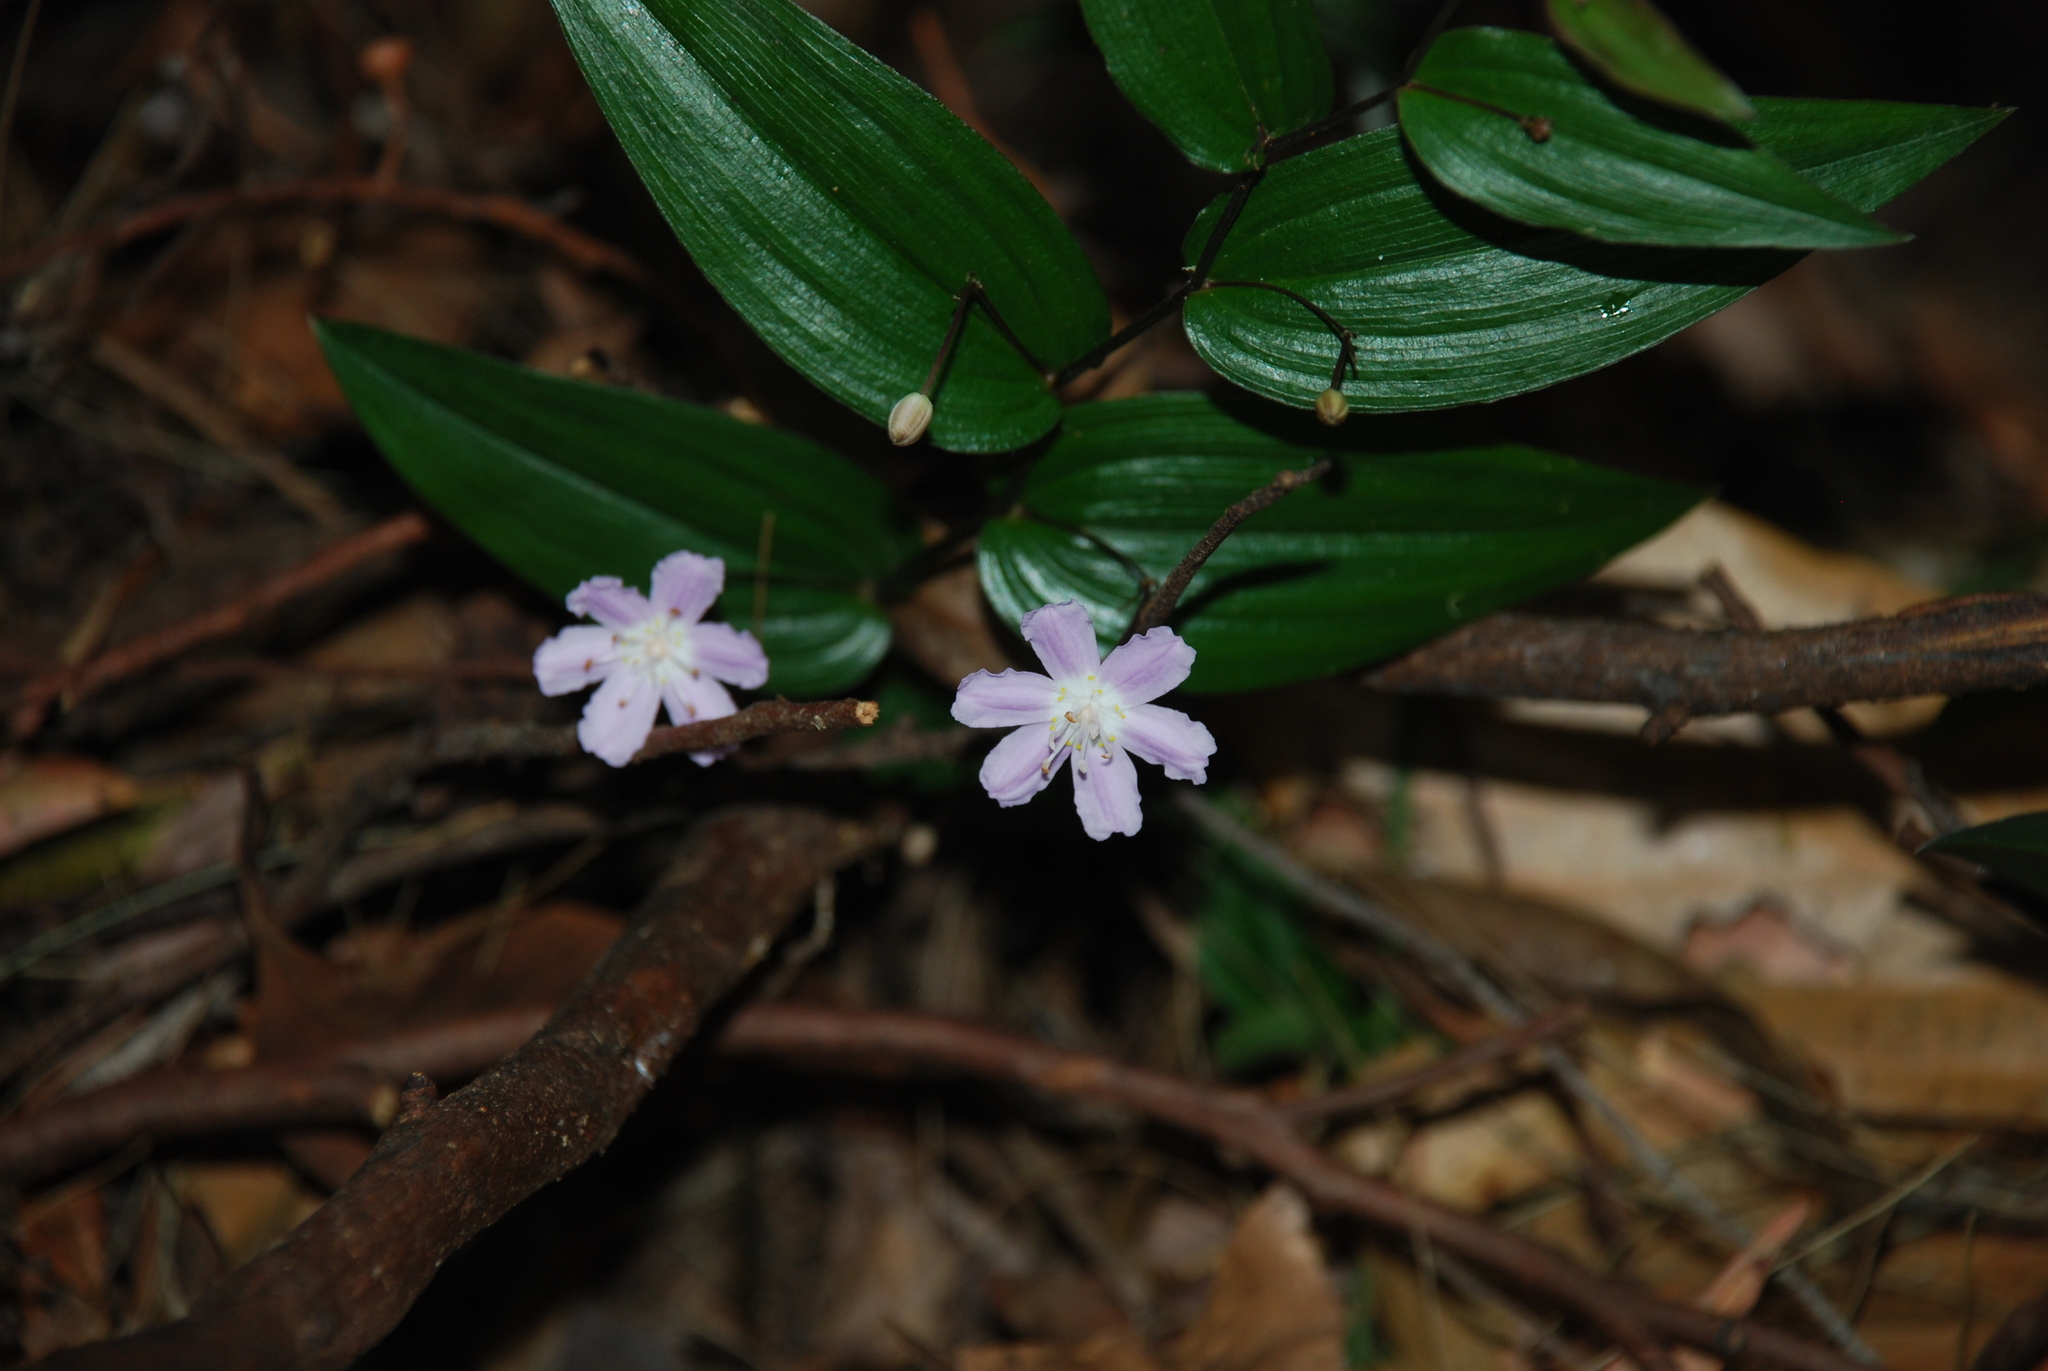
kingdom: Plantae
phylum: Tracheophyta
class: Liliopsida
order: Liliales
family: Colchicaceae
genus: Tripladenia
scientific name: Tripladenia cunninghamii
